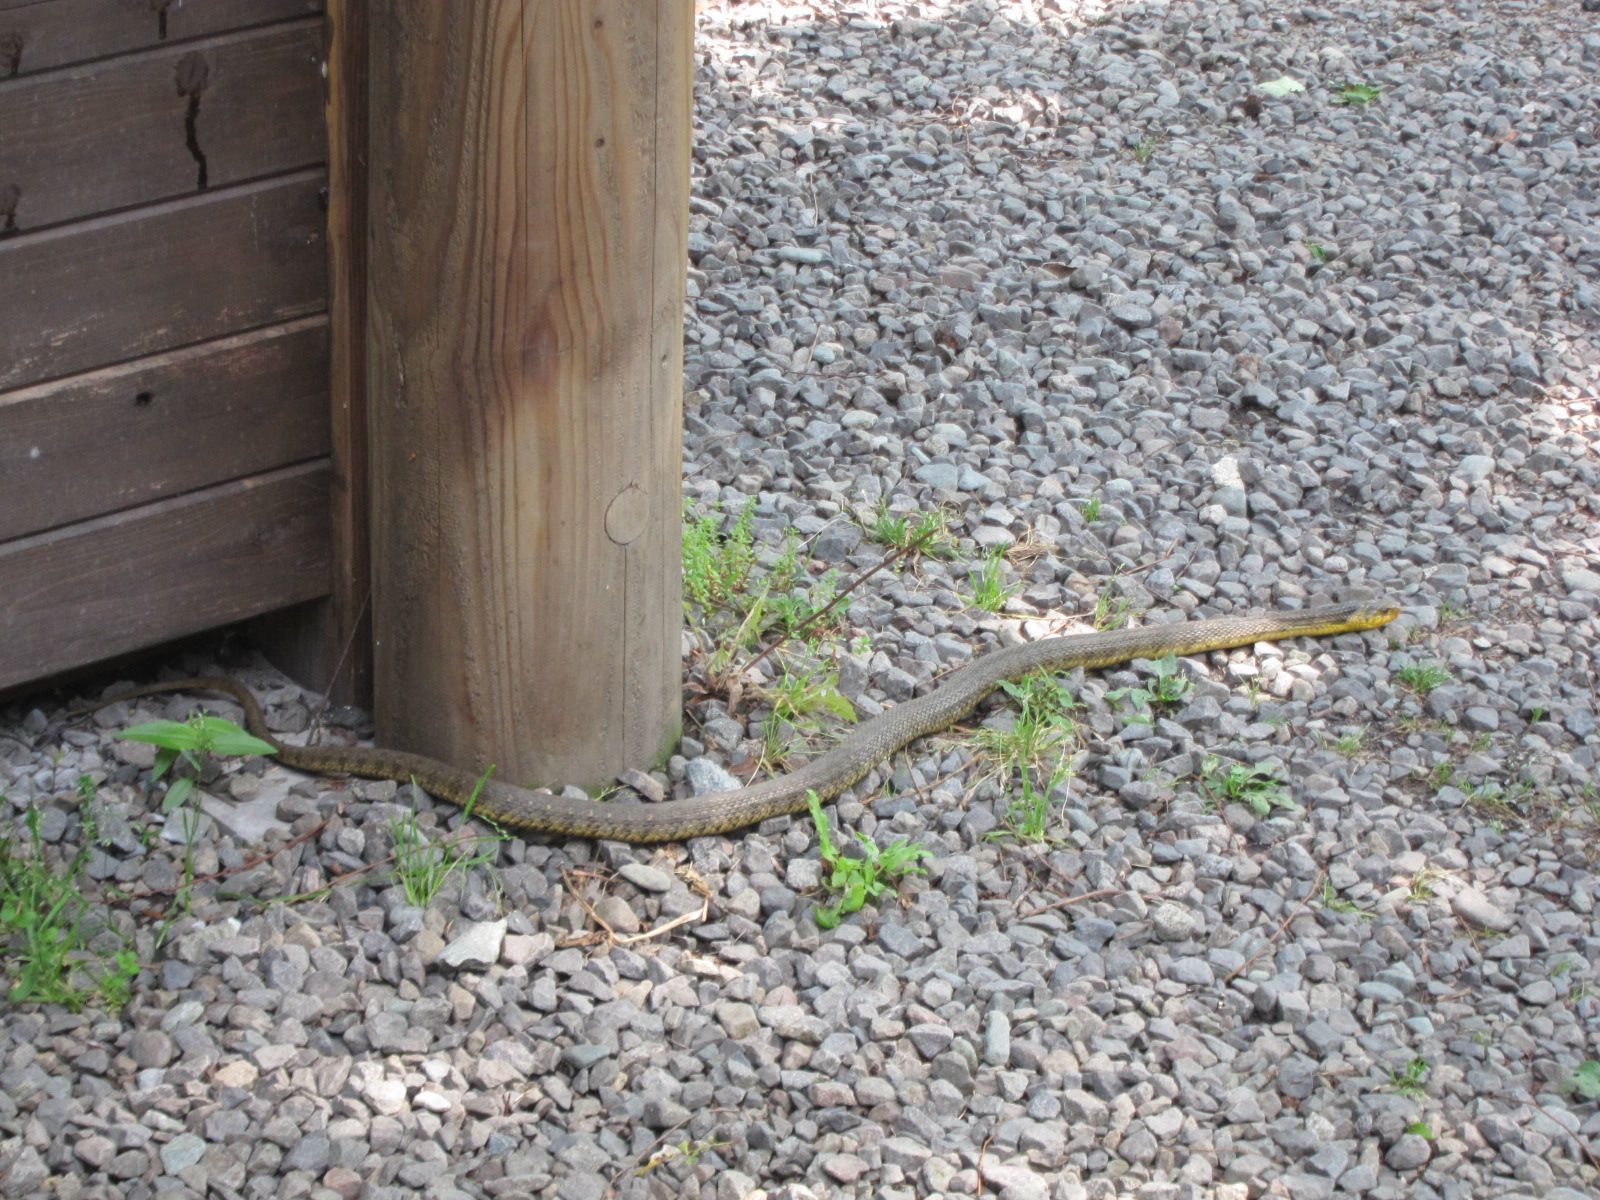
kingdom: Animalia
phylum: Chordata
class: Squamata
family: Colubridae
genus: Rhabdophis
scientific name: Rhabdophis tigrinus
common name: Tiger keelback
